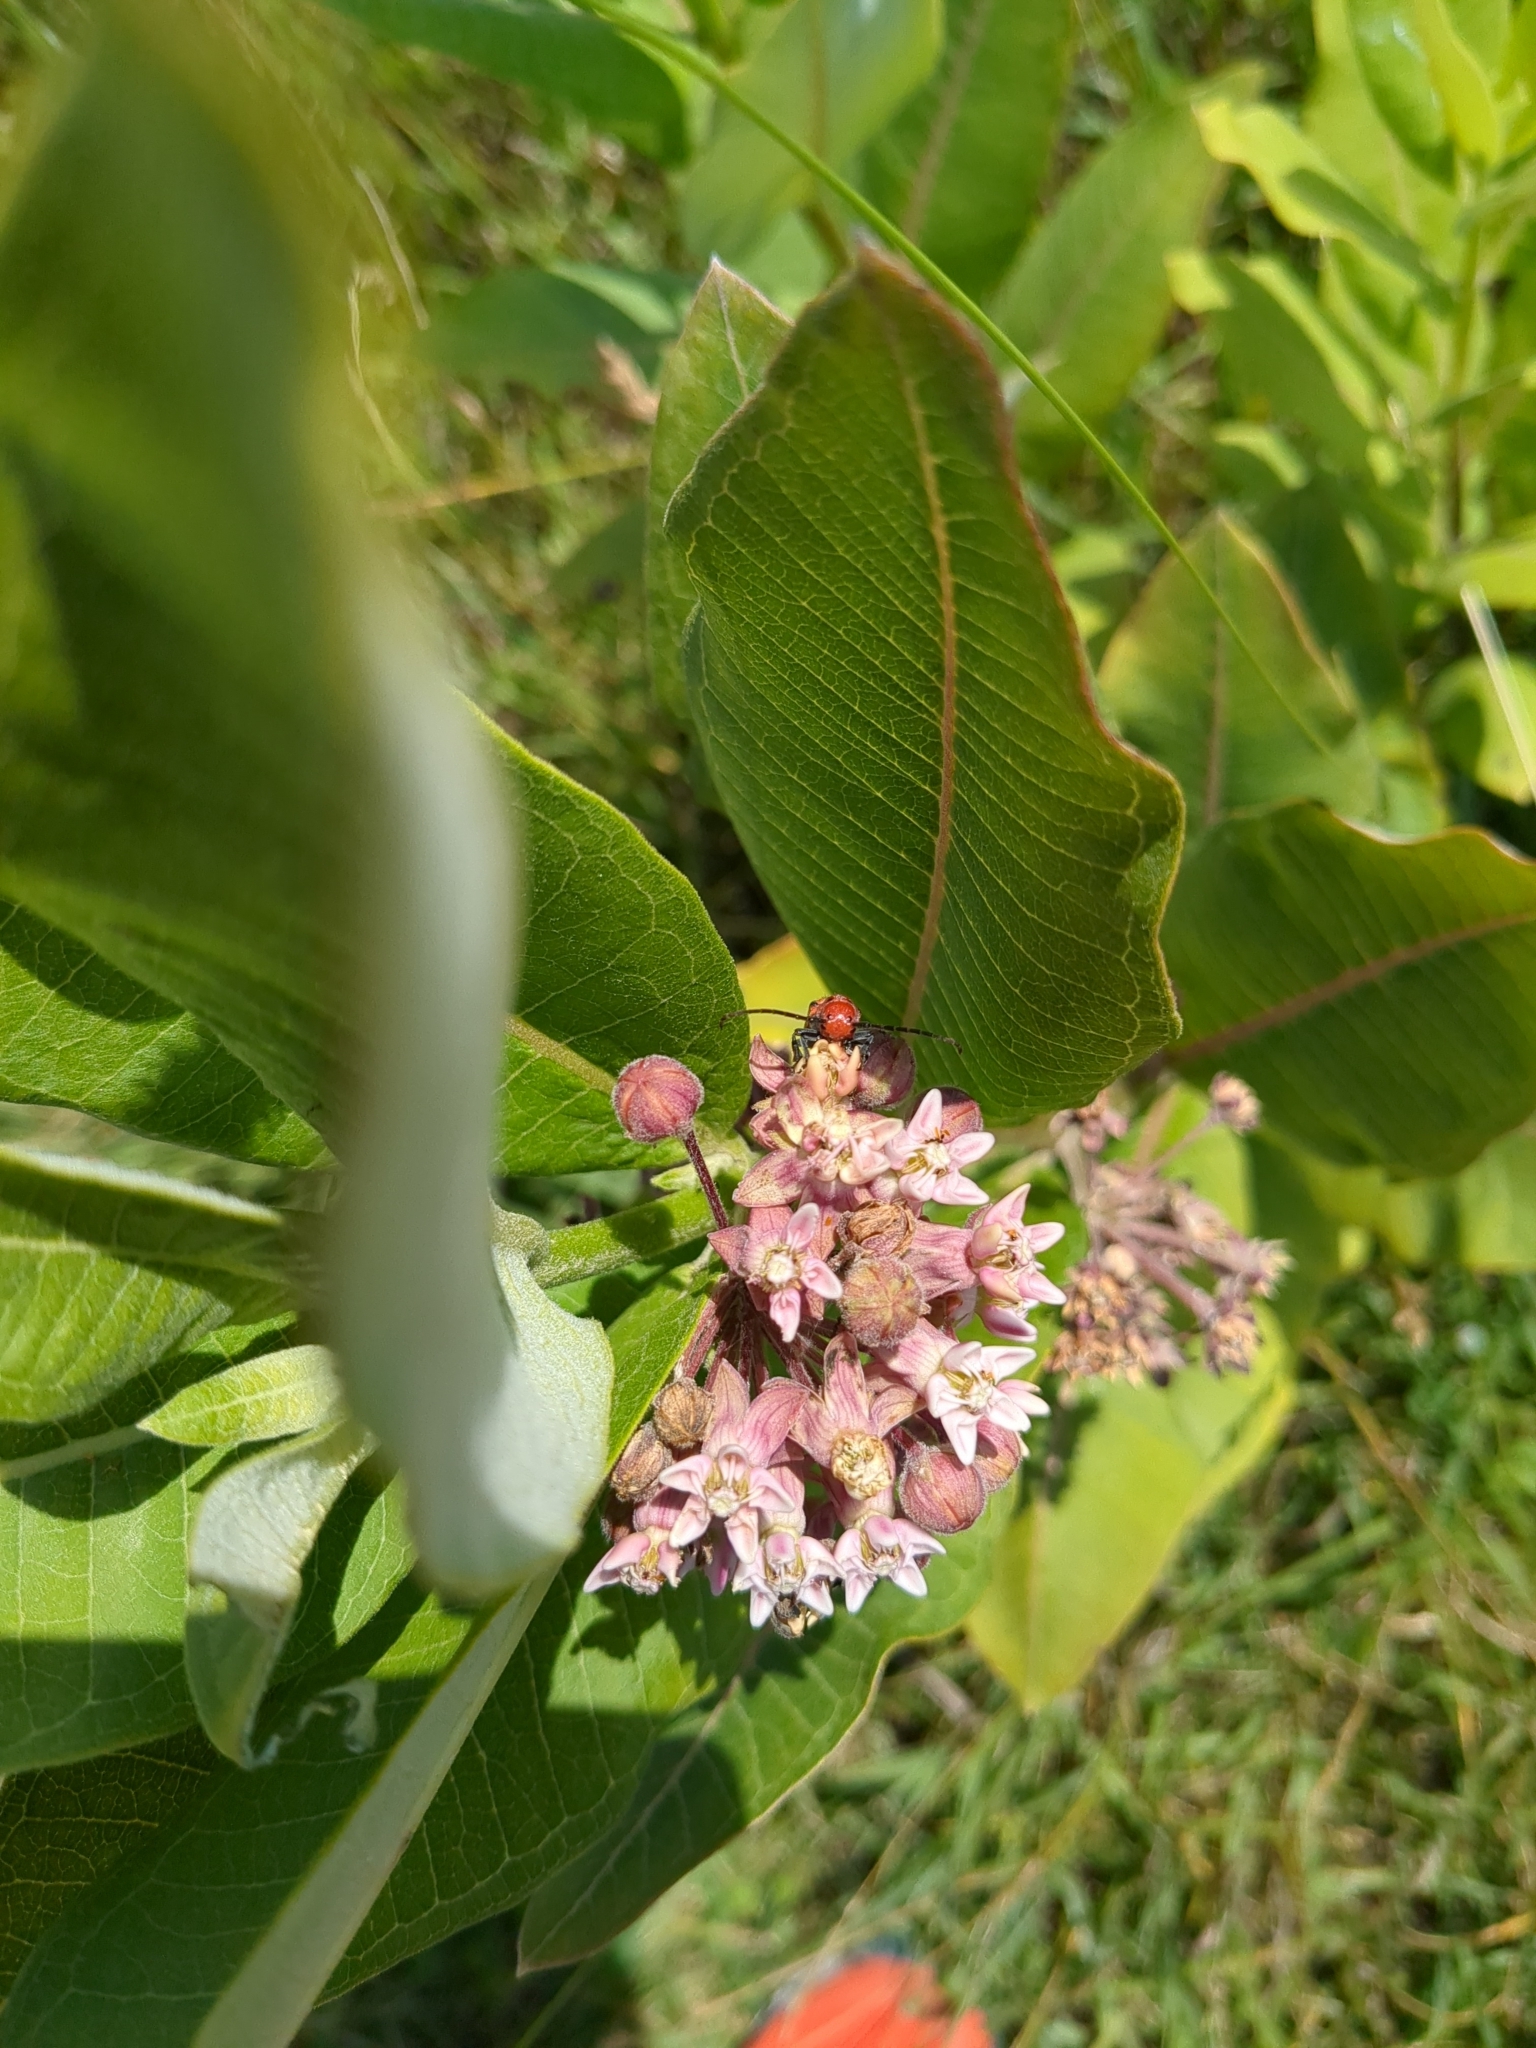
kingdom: Animalia
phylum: Arthropoda
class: Insecta
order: Coleoptera
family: Cerambycidae
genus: Tetraopes
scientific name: Tetraopes tetrophthalmus
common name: Red milkweed beetle
